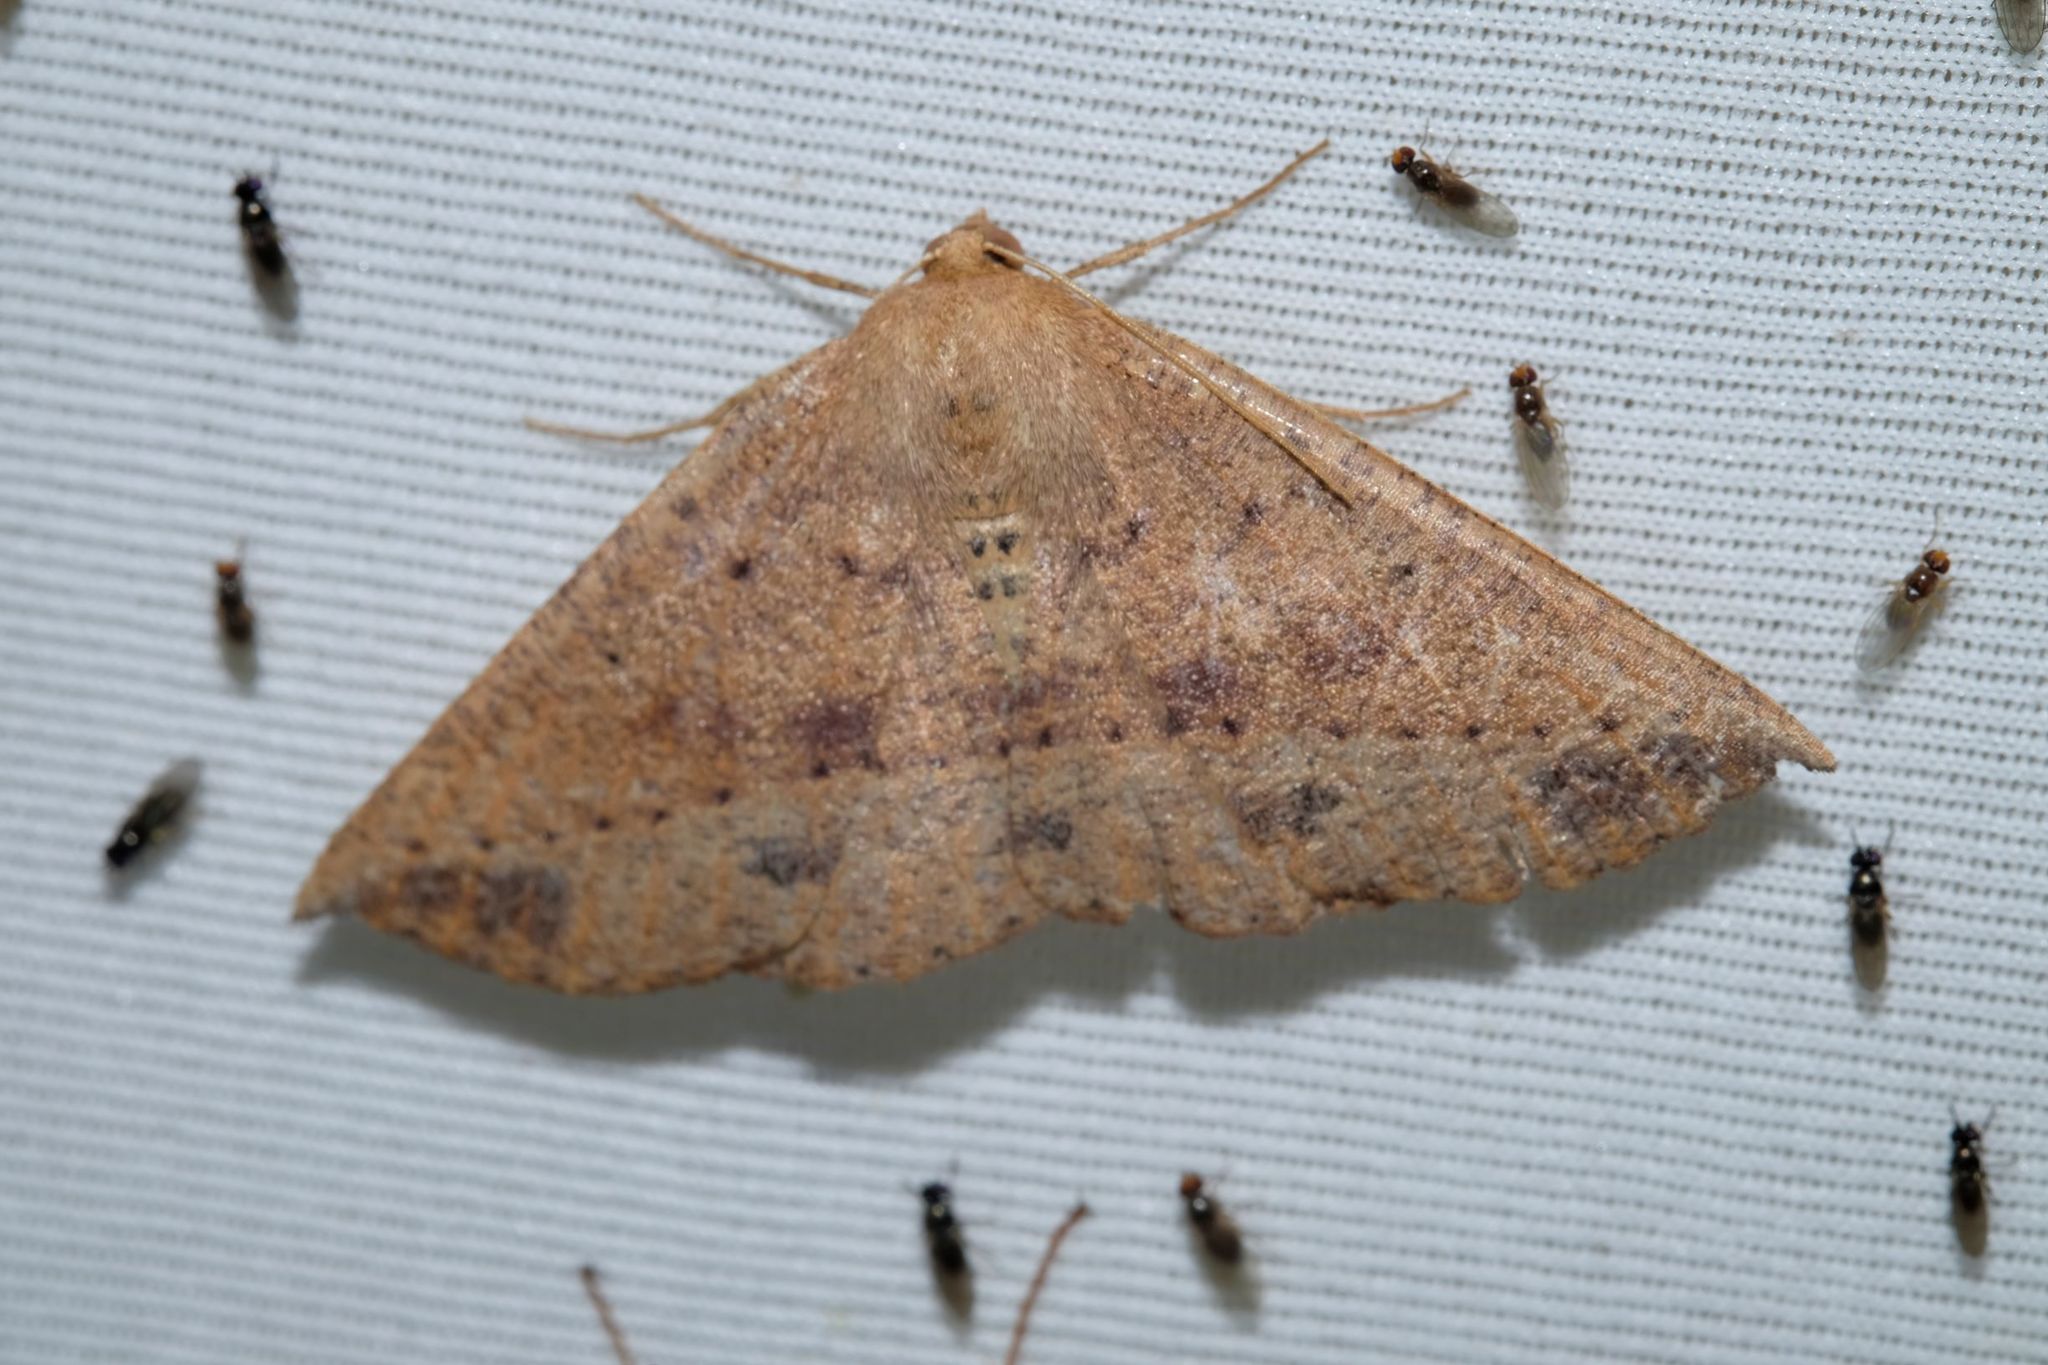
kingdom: Animalia
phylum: Arthropoda
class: Insecta
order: Lepidoptera
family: Geometridae
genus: Idiodes
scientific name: Idiodes apicata
